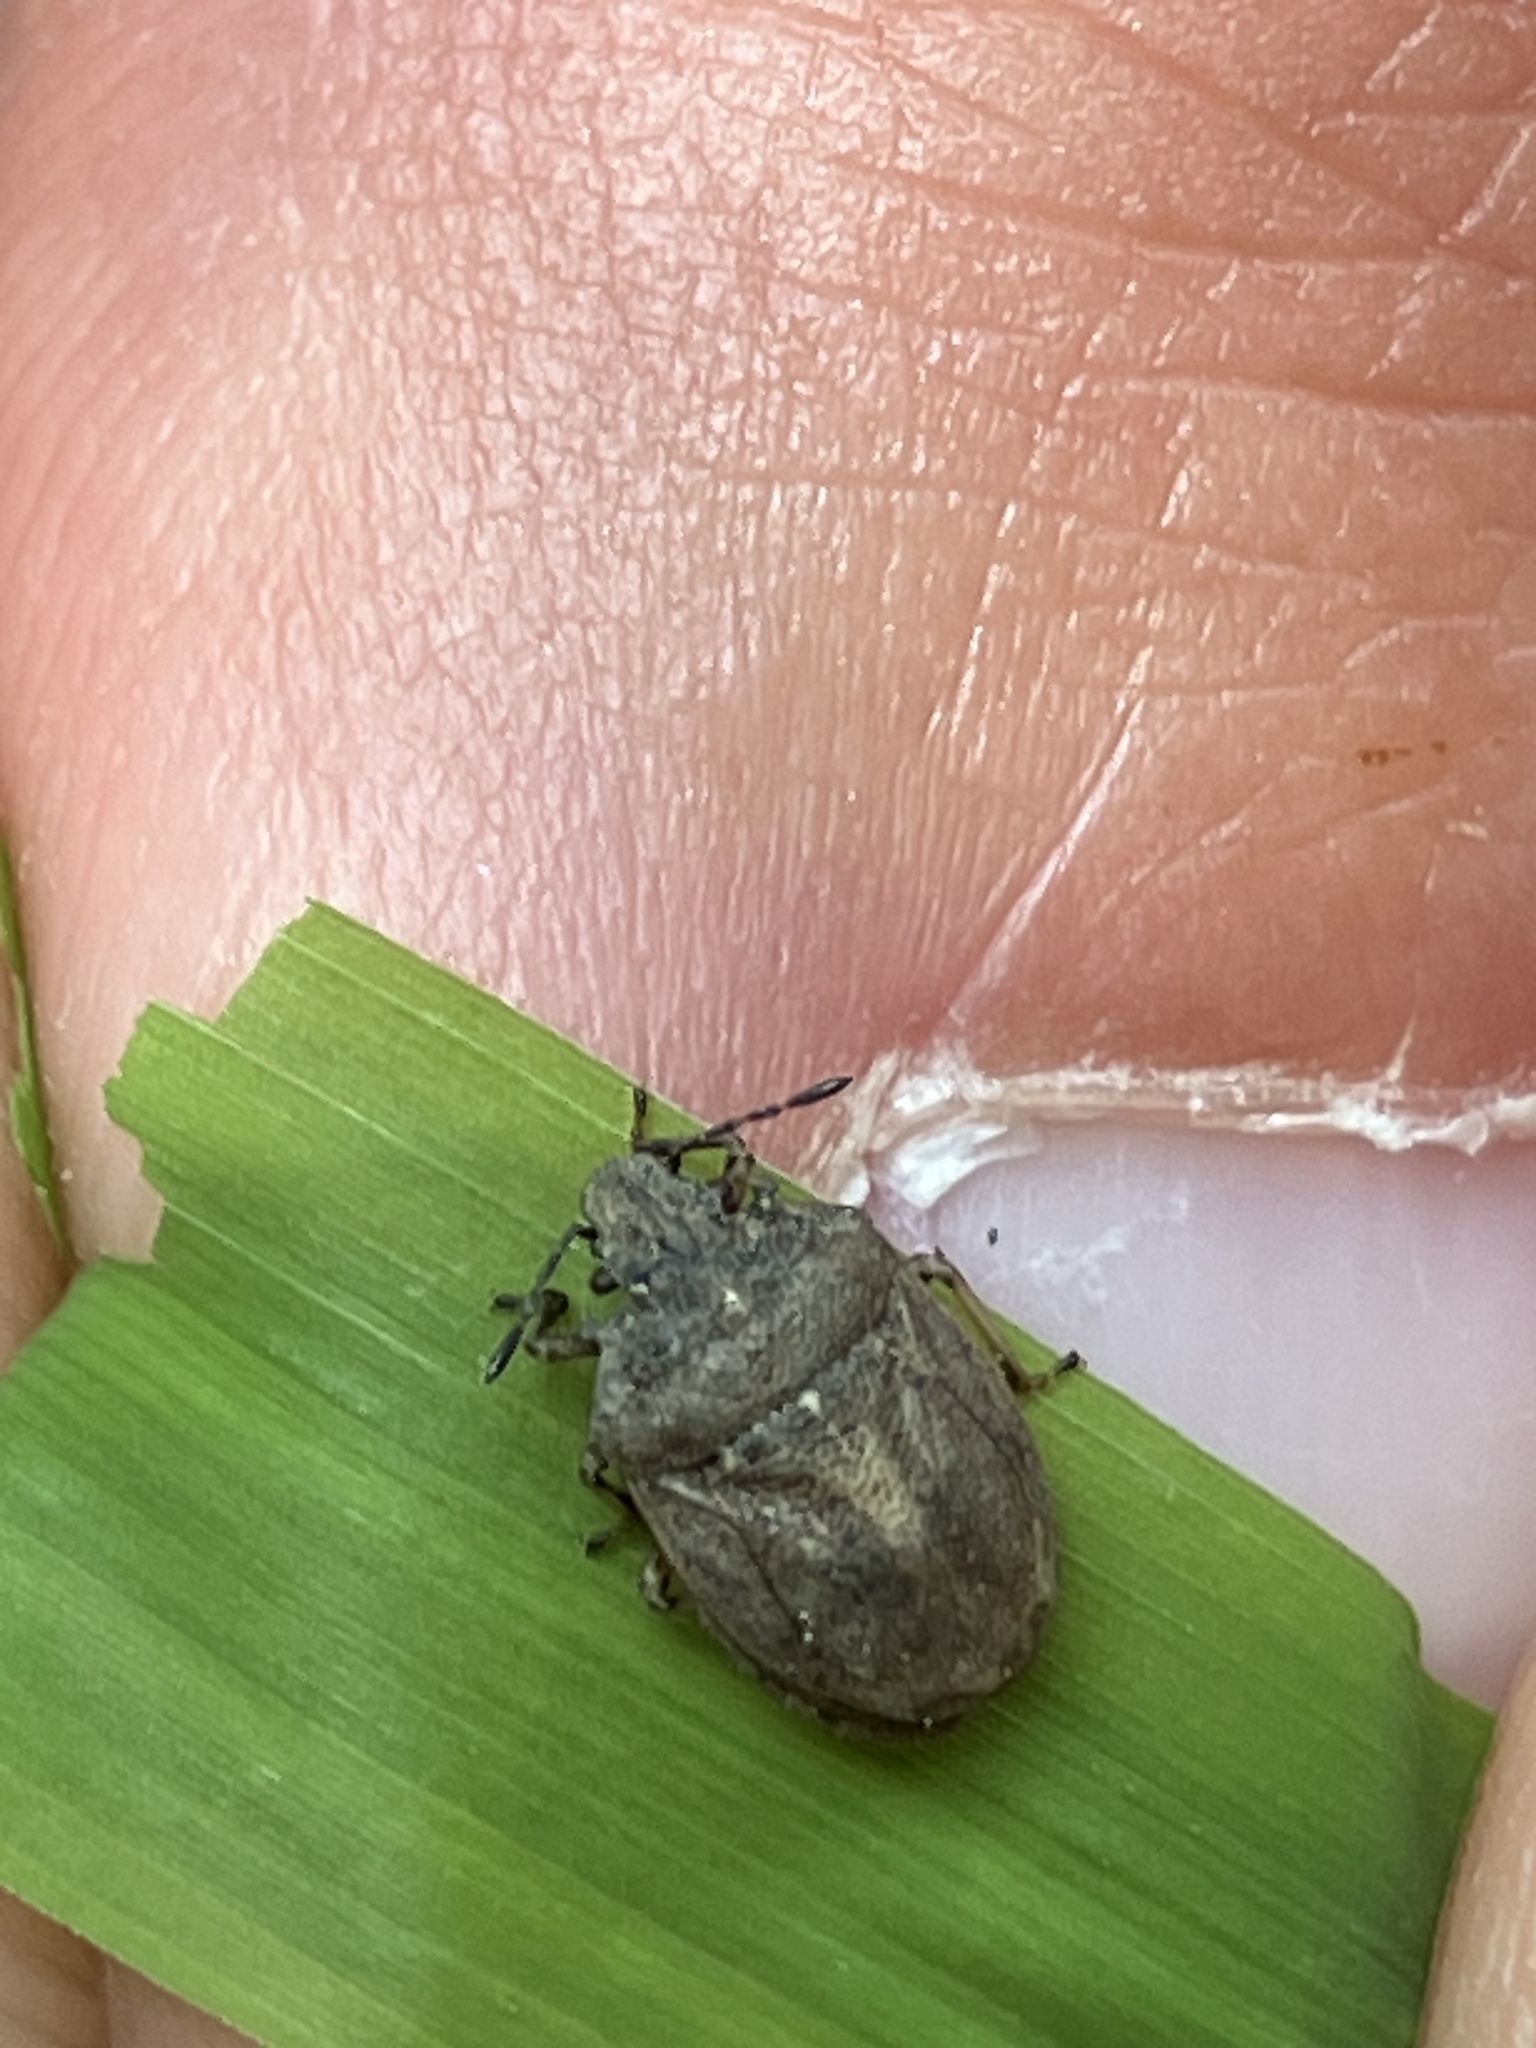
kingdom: Animalia
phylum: Arthropoda
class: Insecta
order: Hemiptera
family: Pentatomidae
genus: Podops
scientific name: Podops inunctus
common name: Turtle bug
